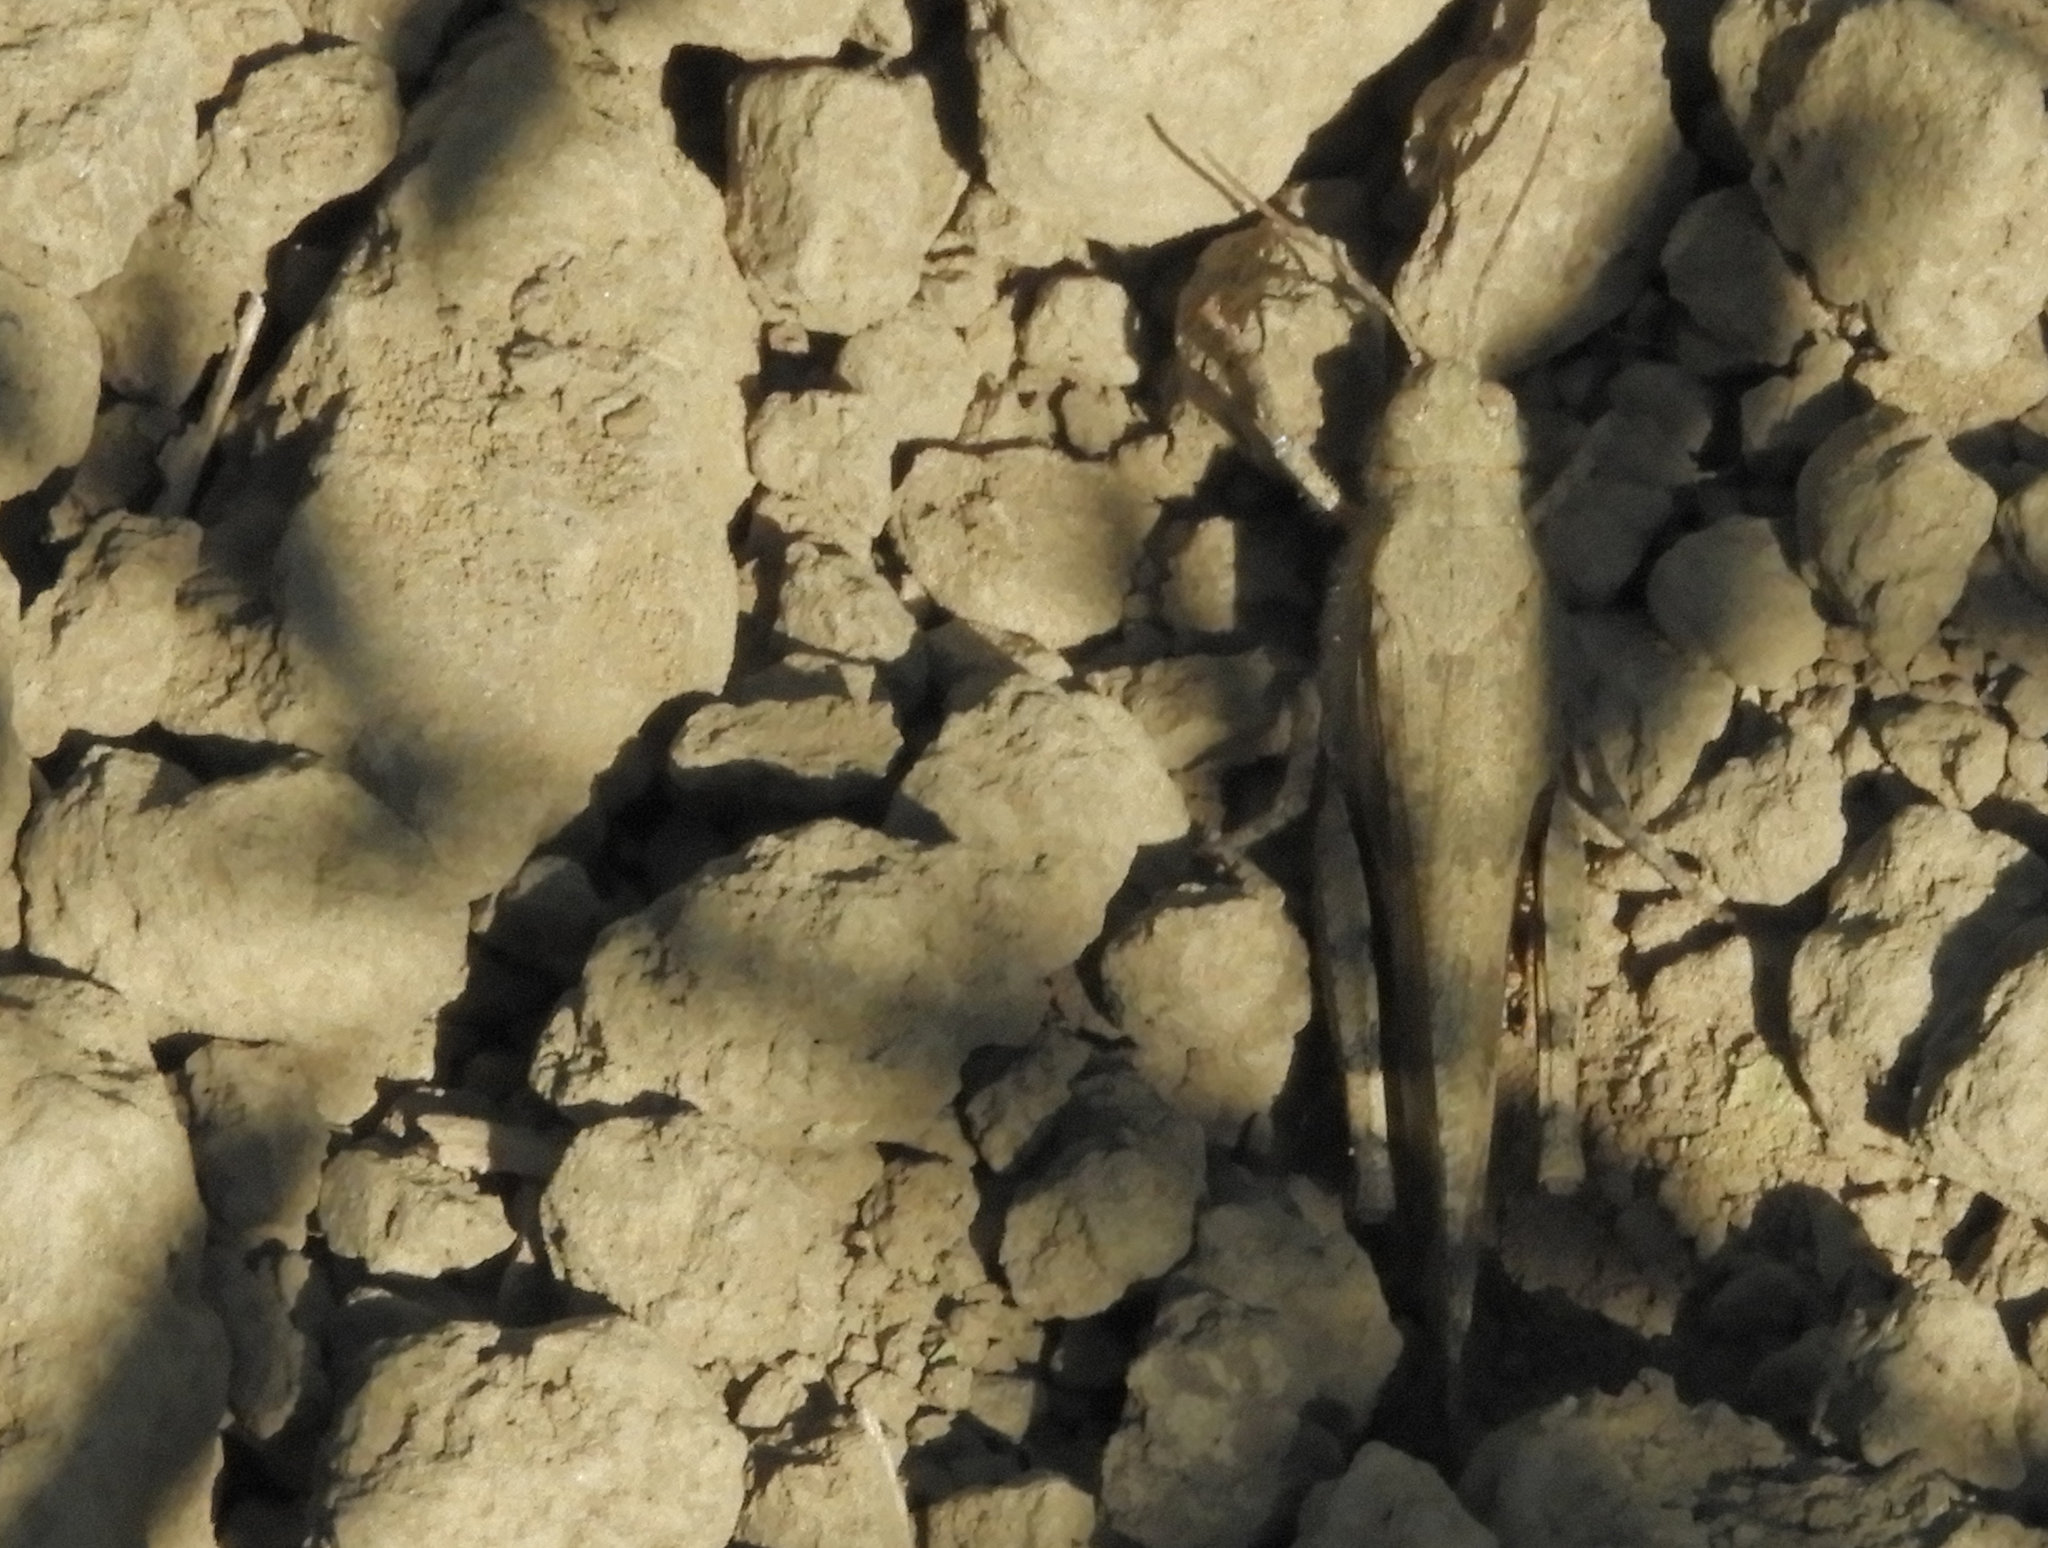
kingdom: Animalia
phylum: Arthropoda
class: Insecta
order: Orthoptera
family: Acrididae
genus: Trimerotropis
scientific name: Trimerotropis pallidipennis
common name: Pallid-winged grasshopper
